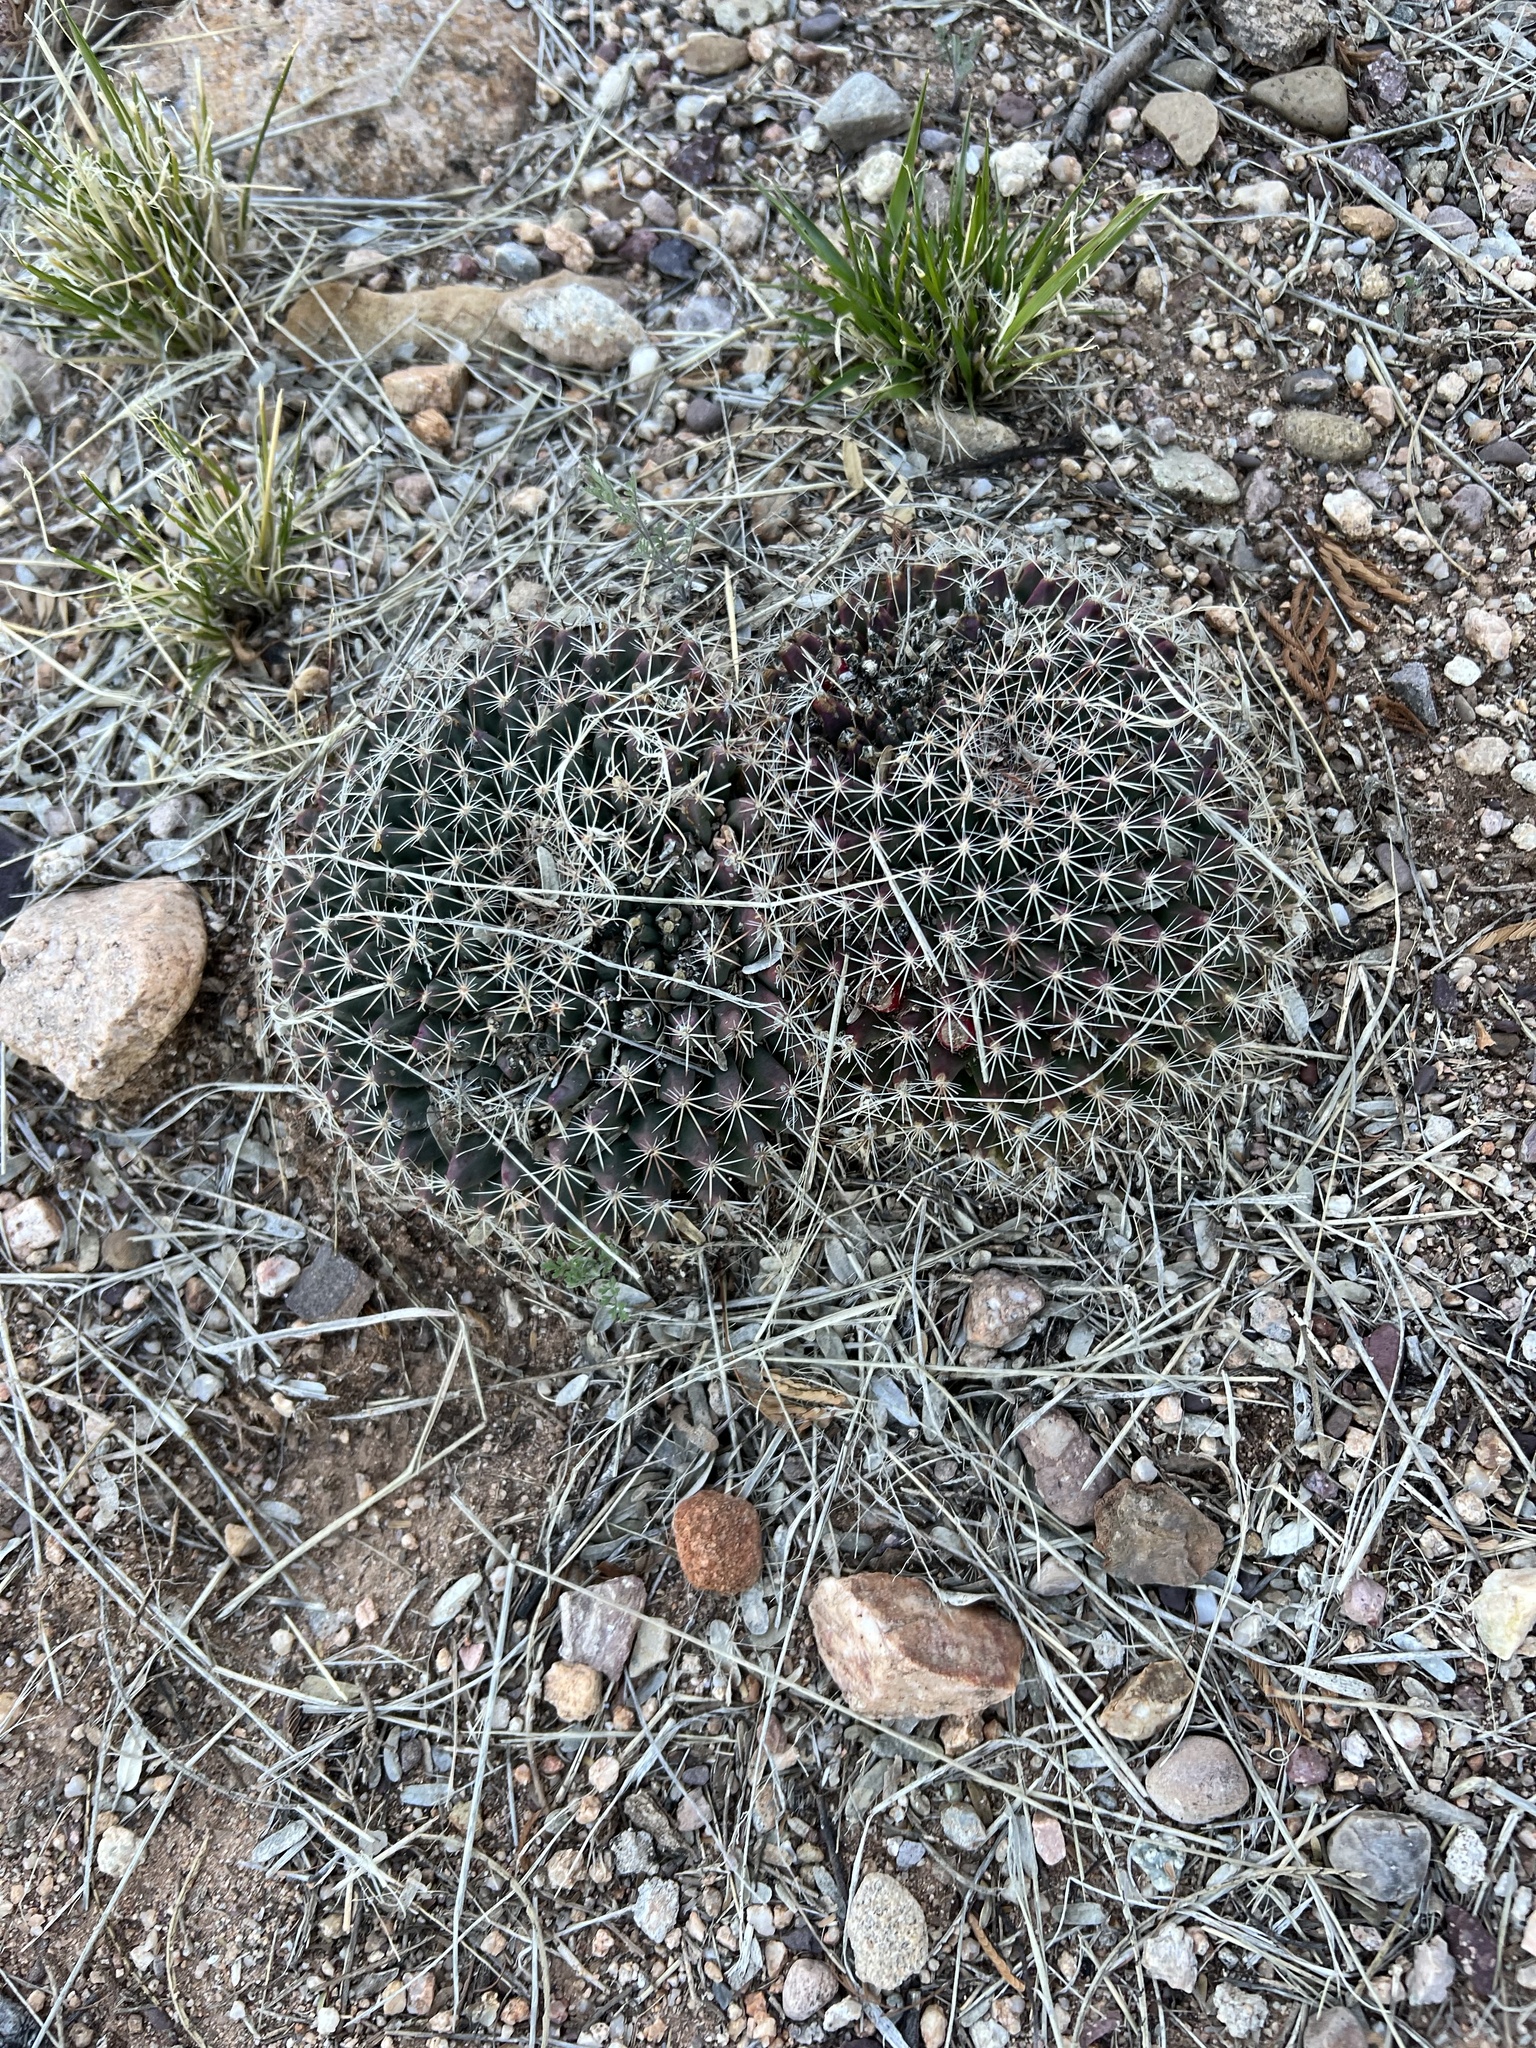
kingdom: Plantae
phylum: Tracheophyta
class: Magnoliopsida
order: Caryophyllales
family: Cactaceae
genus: Mammillaria
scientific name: Mammillaria heyderi
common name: Little nipple cactus
